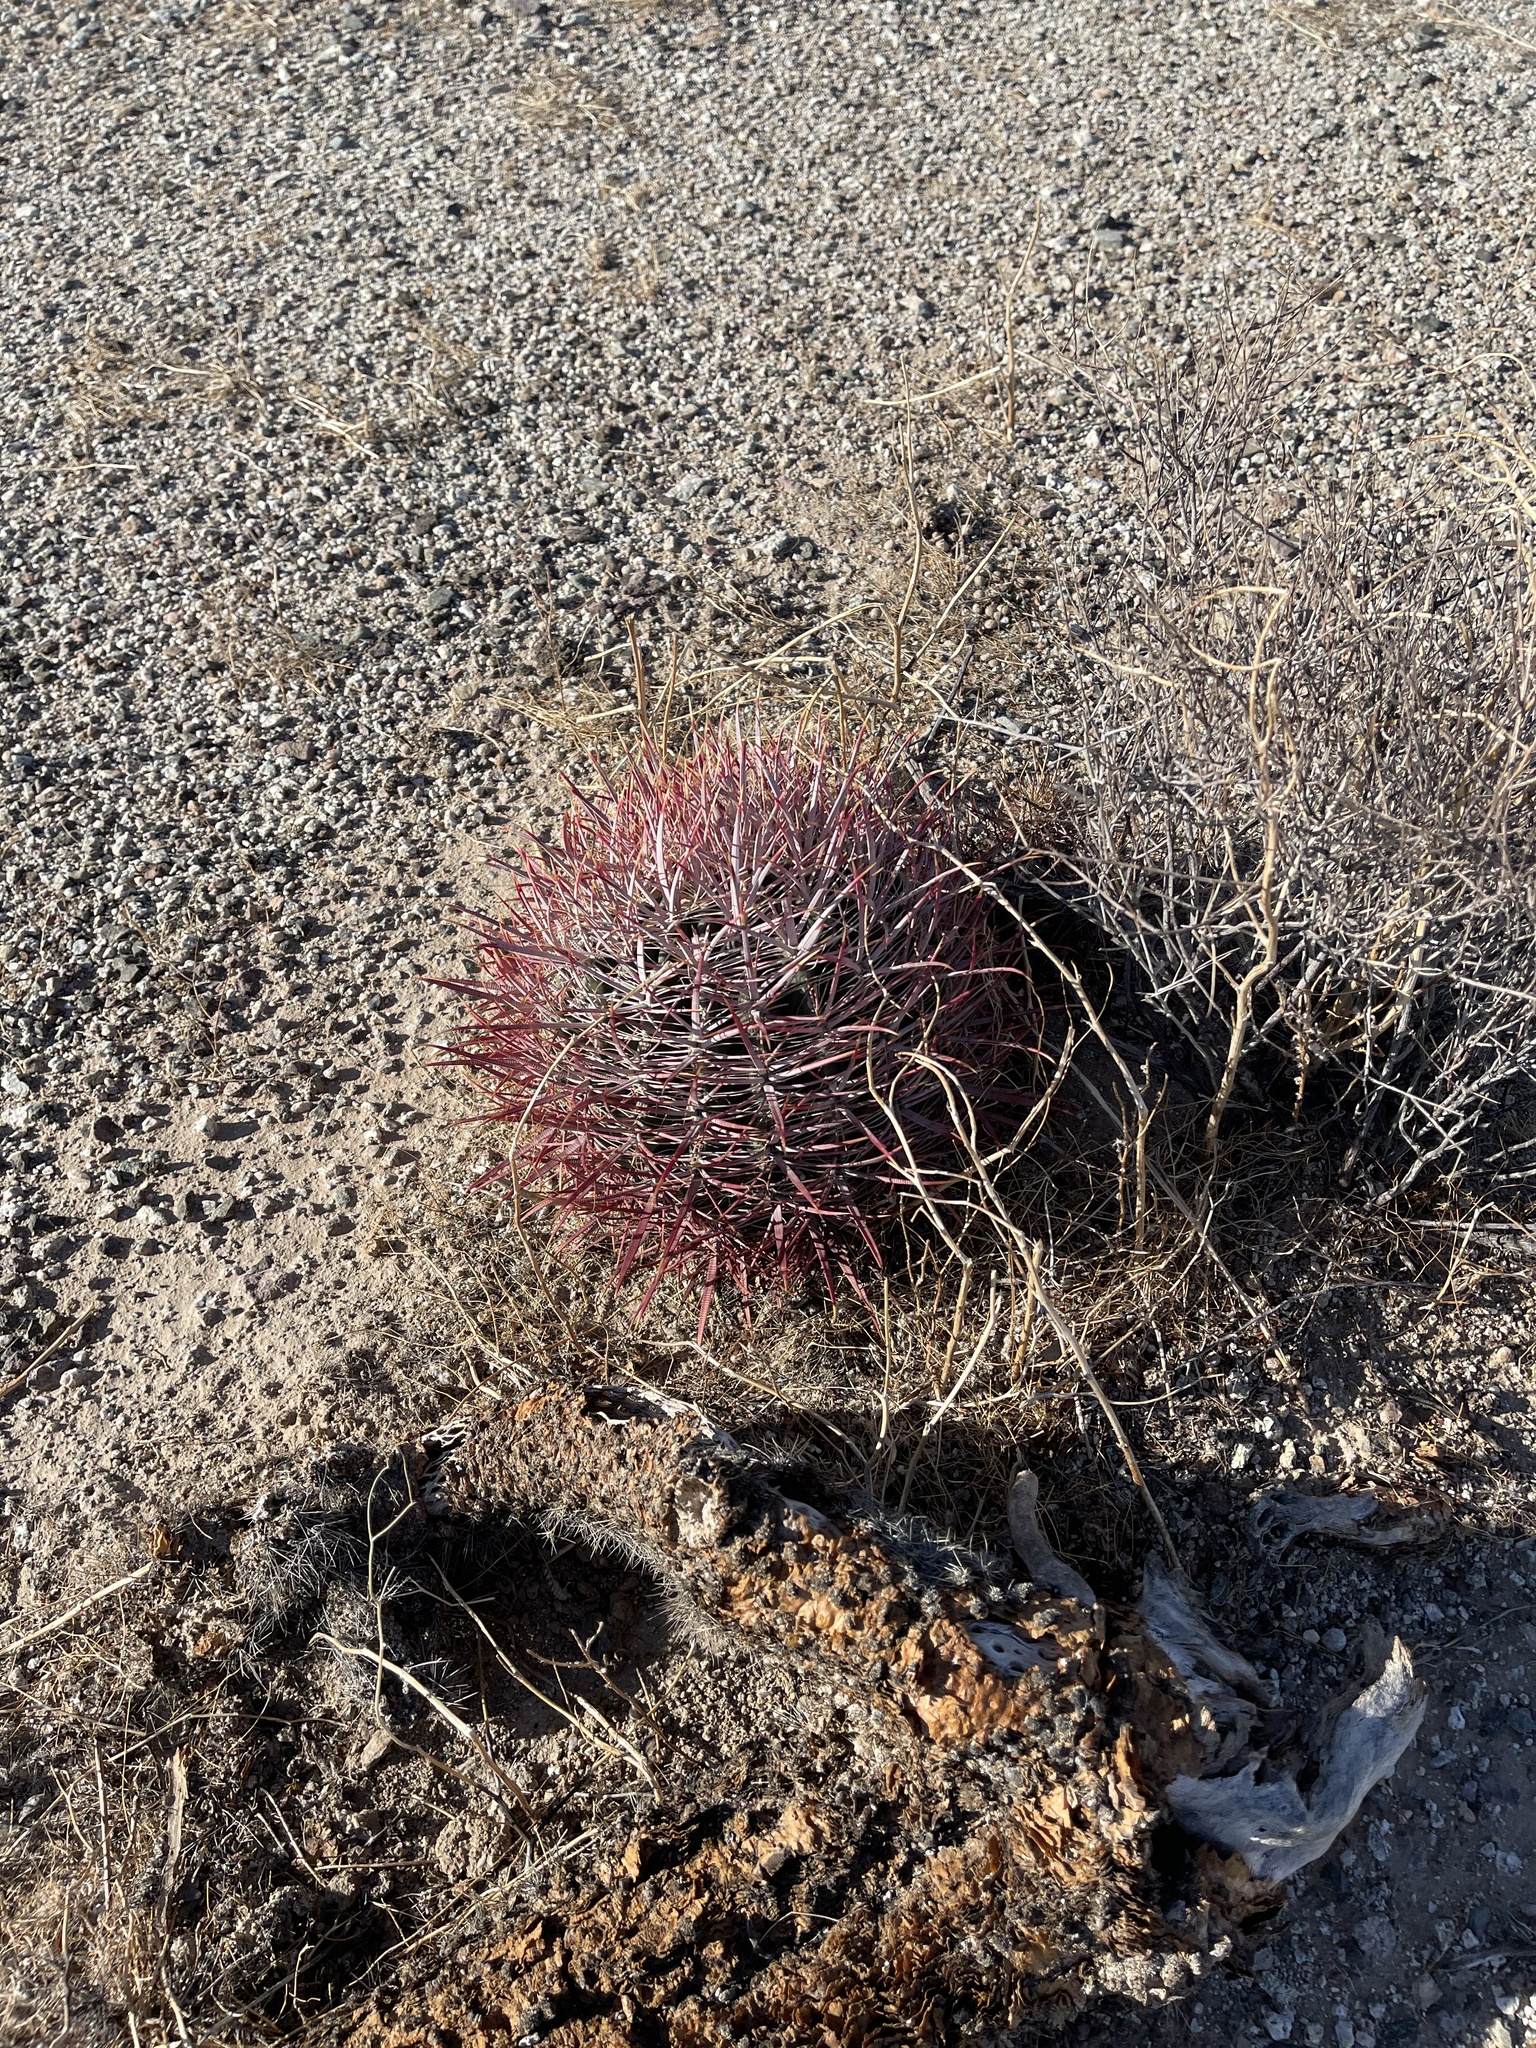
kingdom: Plantae
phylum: Tracheophyta
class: Magnoliopsida
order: Caryophyllales
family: Cactaceae
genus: Ferocactus
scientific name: Ferocactus cylindraceus
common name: California barrel cactus
